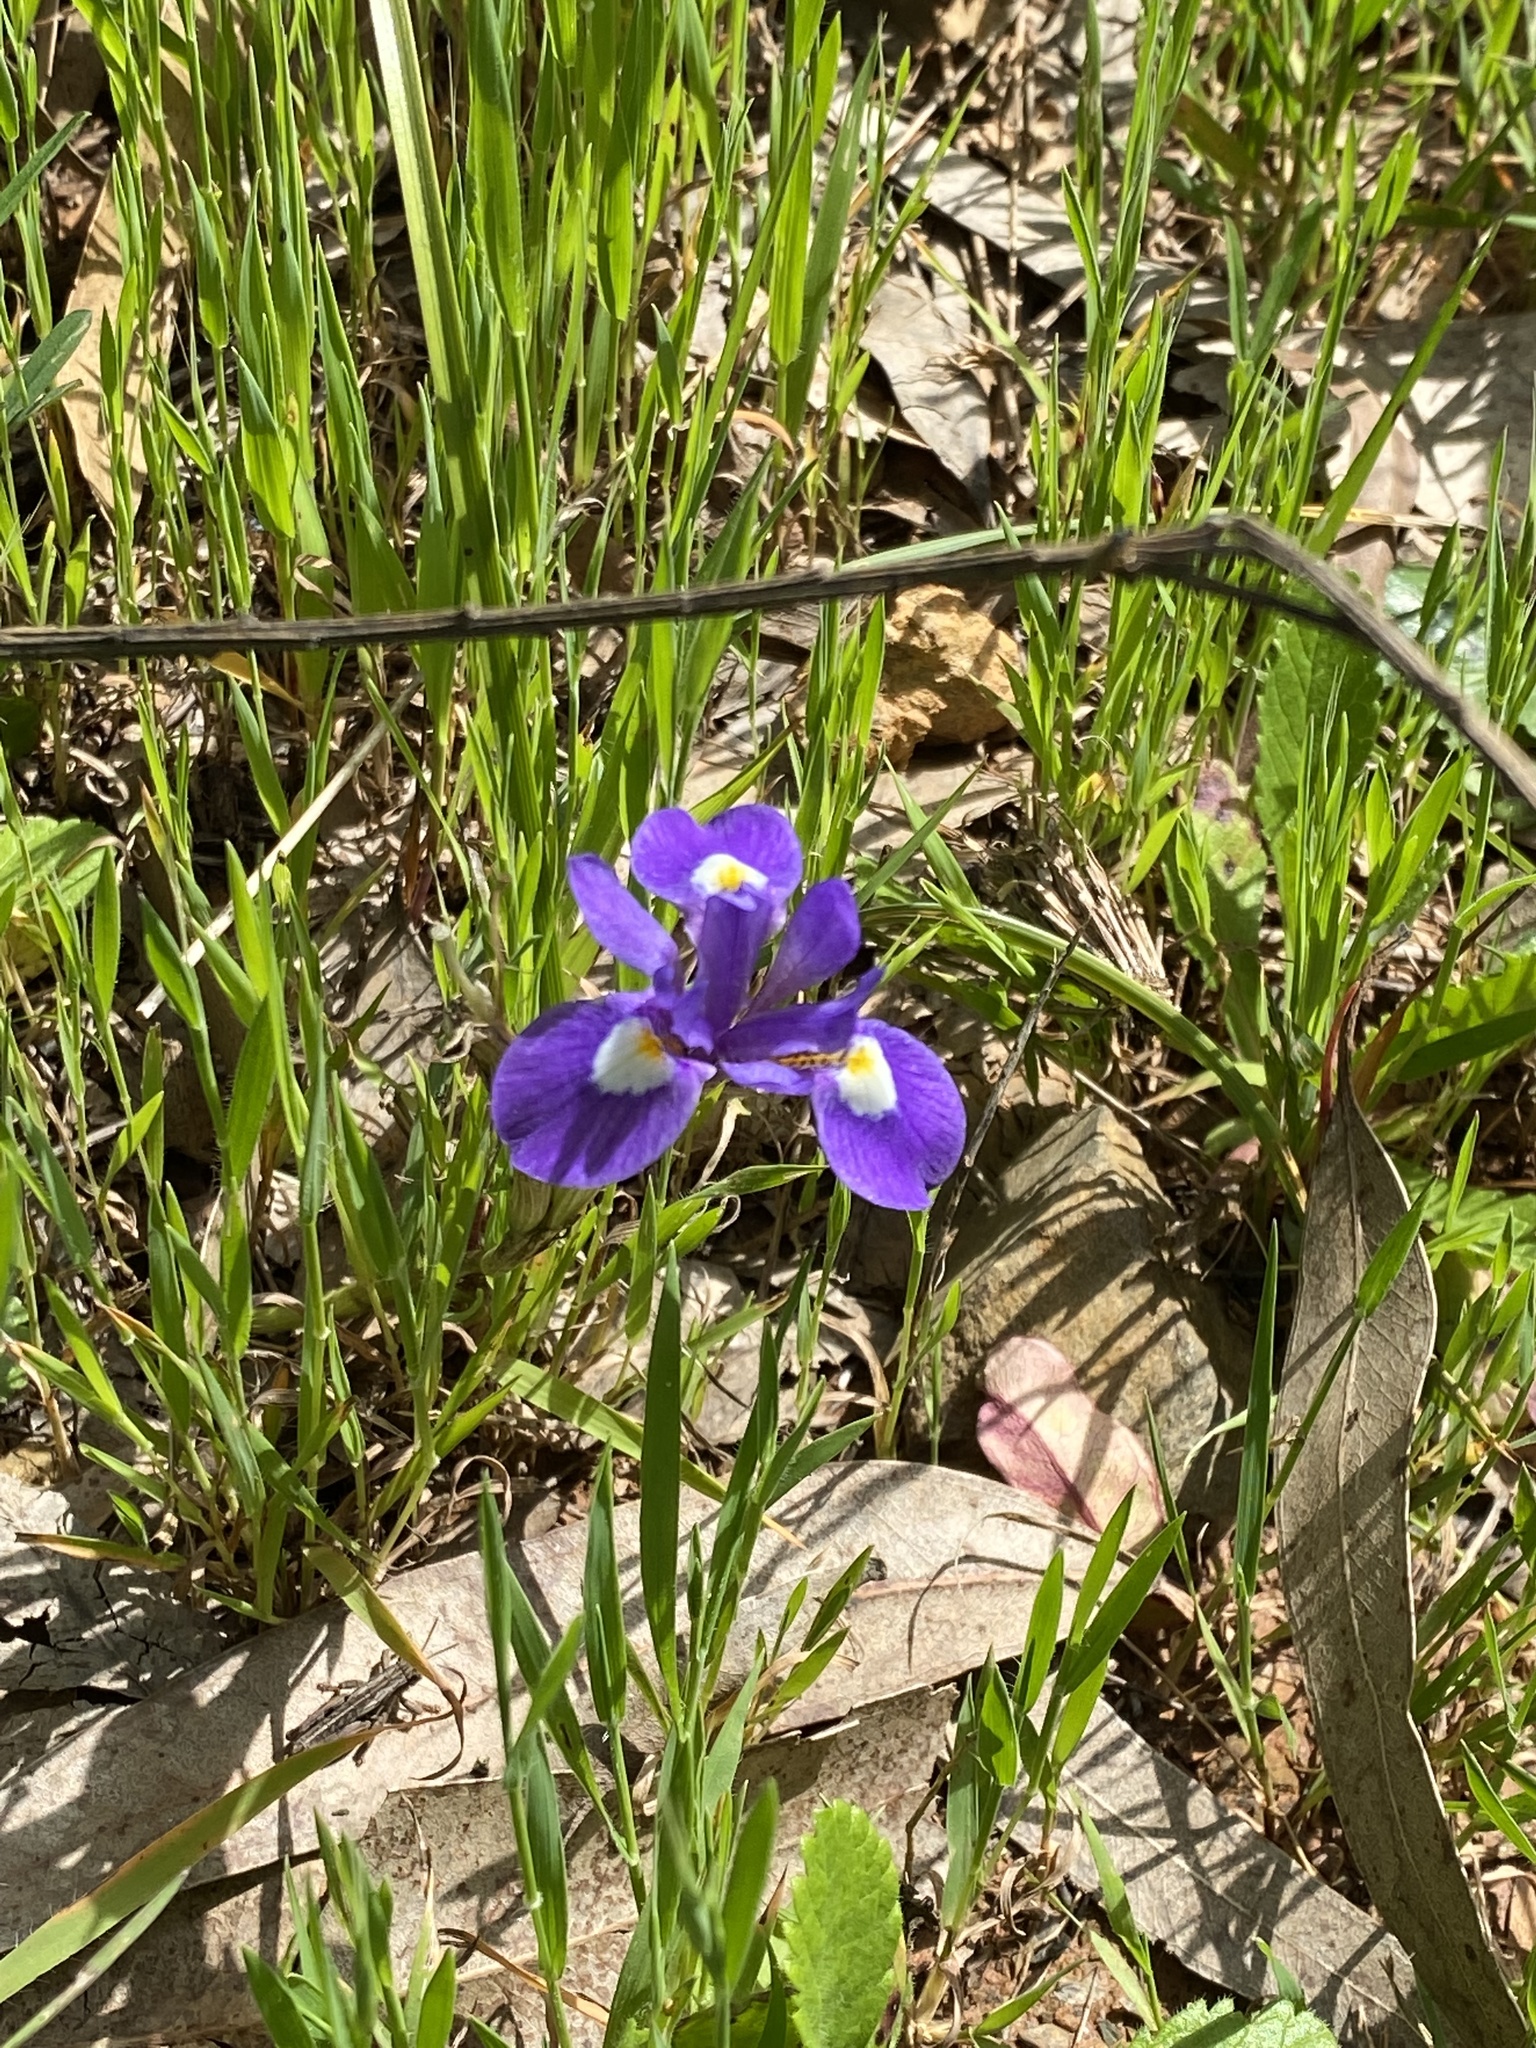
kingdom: Plantae
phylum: Tracheophyta
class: Liliopsida
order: Asparagales
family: Iridaceae
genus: Moraea
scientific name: Moraea sisyrinchium
